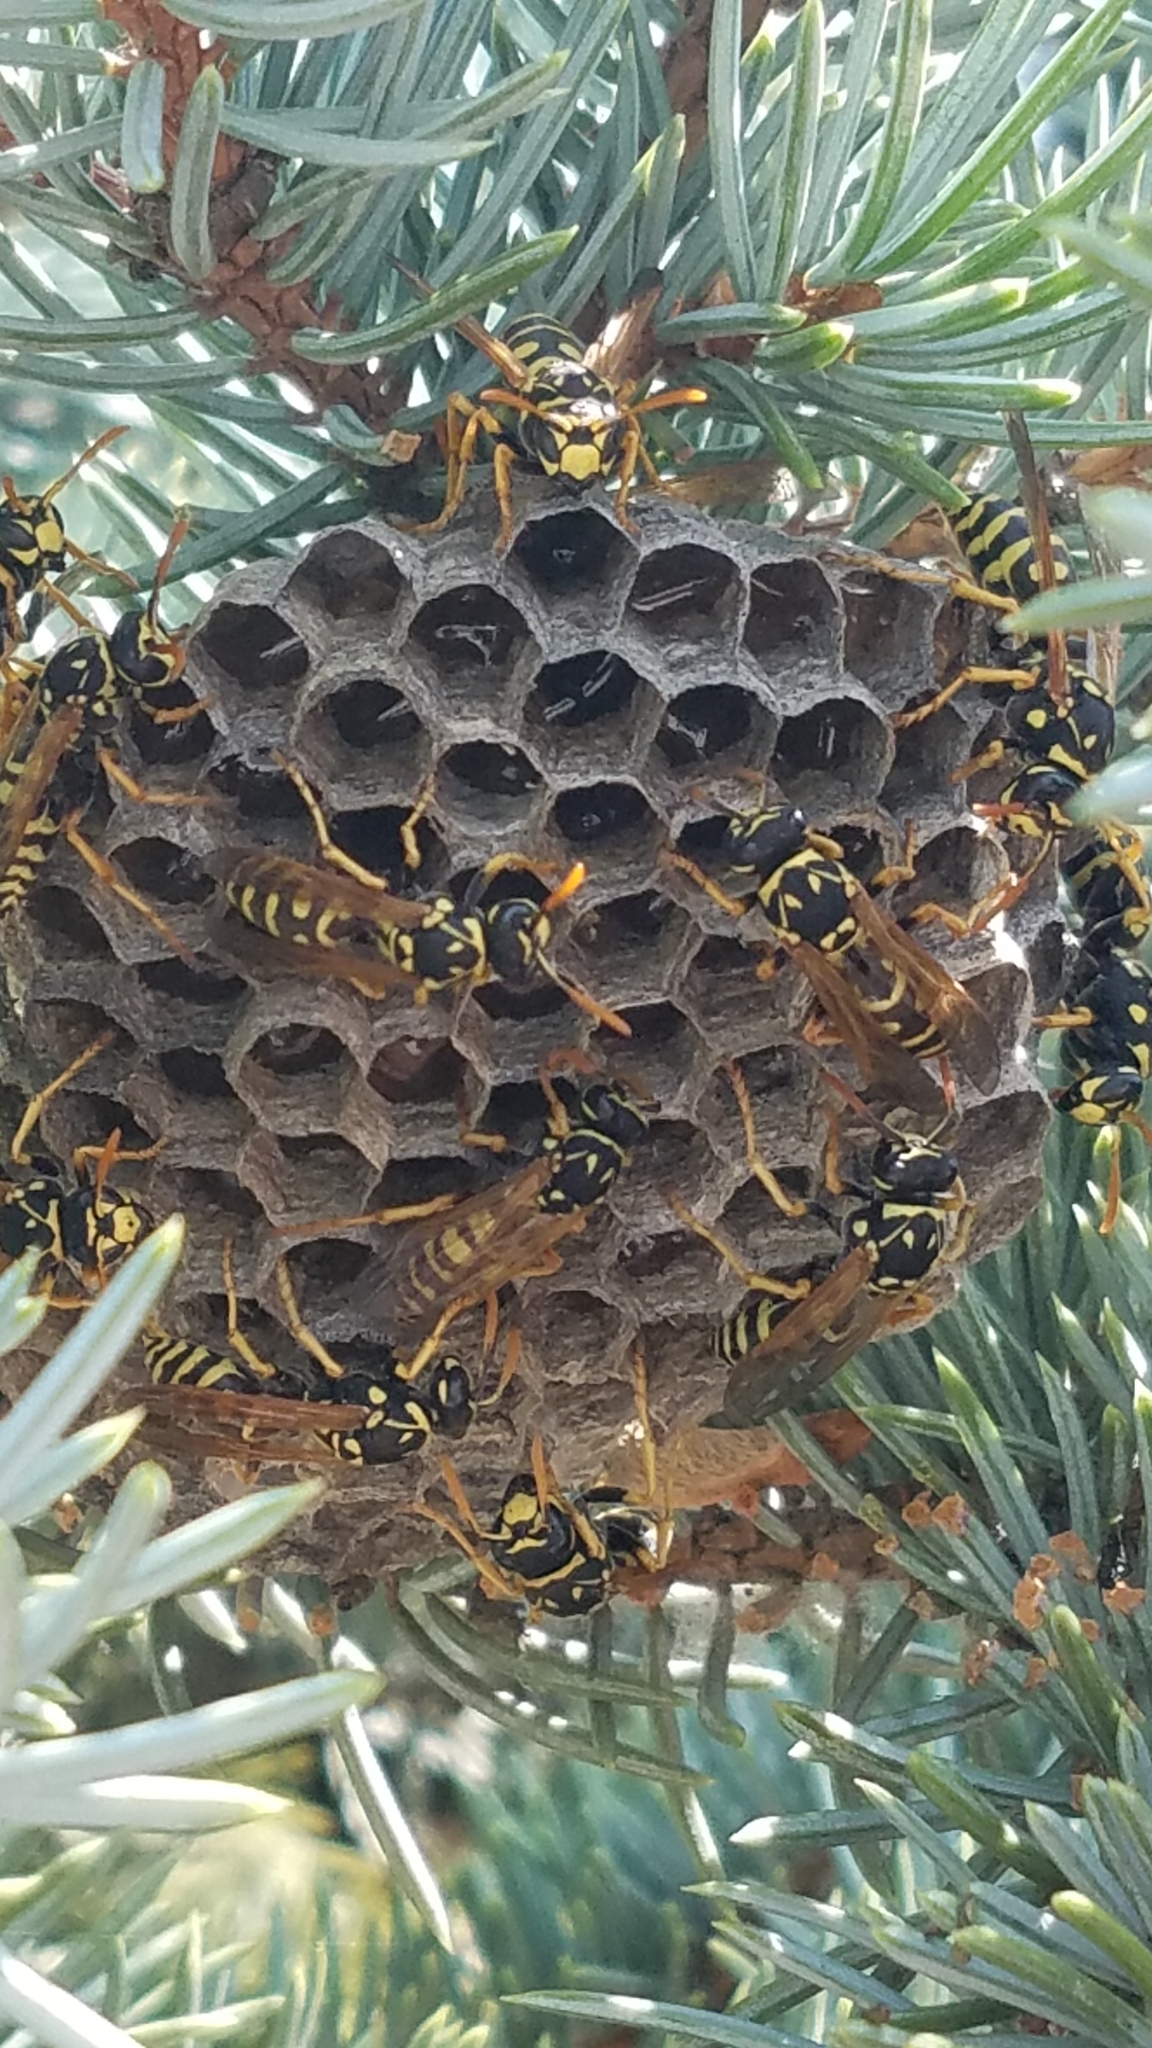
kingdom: Animalia
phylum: Arthropoda
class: Insecta
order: Hymenoptera
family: Eumenidae
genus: Polistes
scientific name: Polistes dominula
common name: Paper wasp
